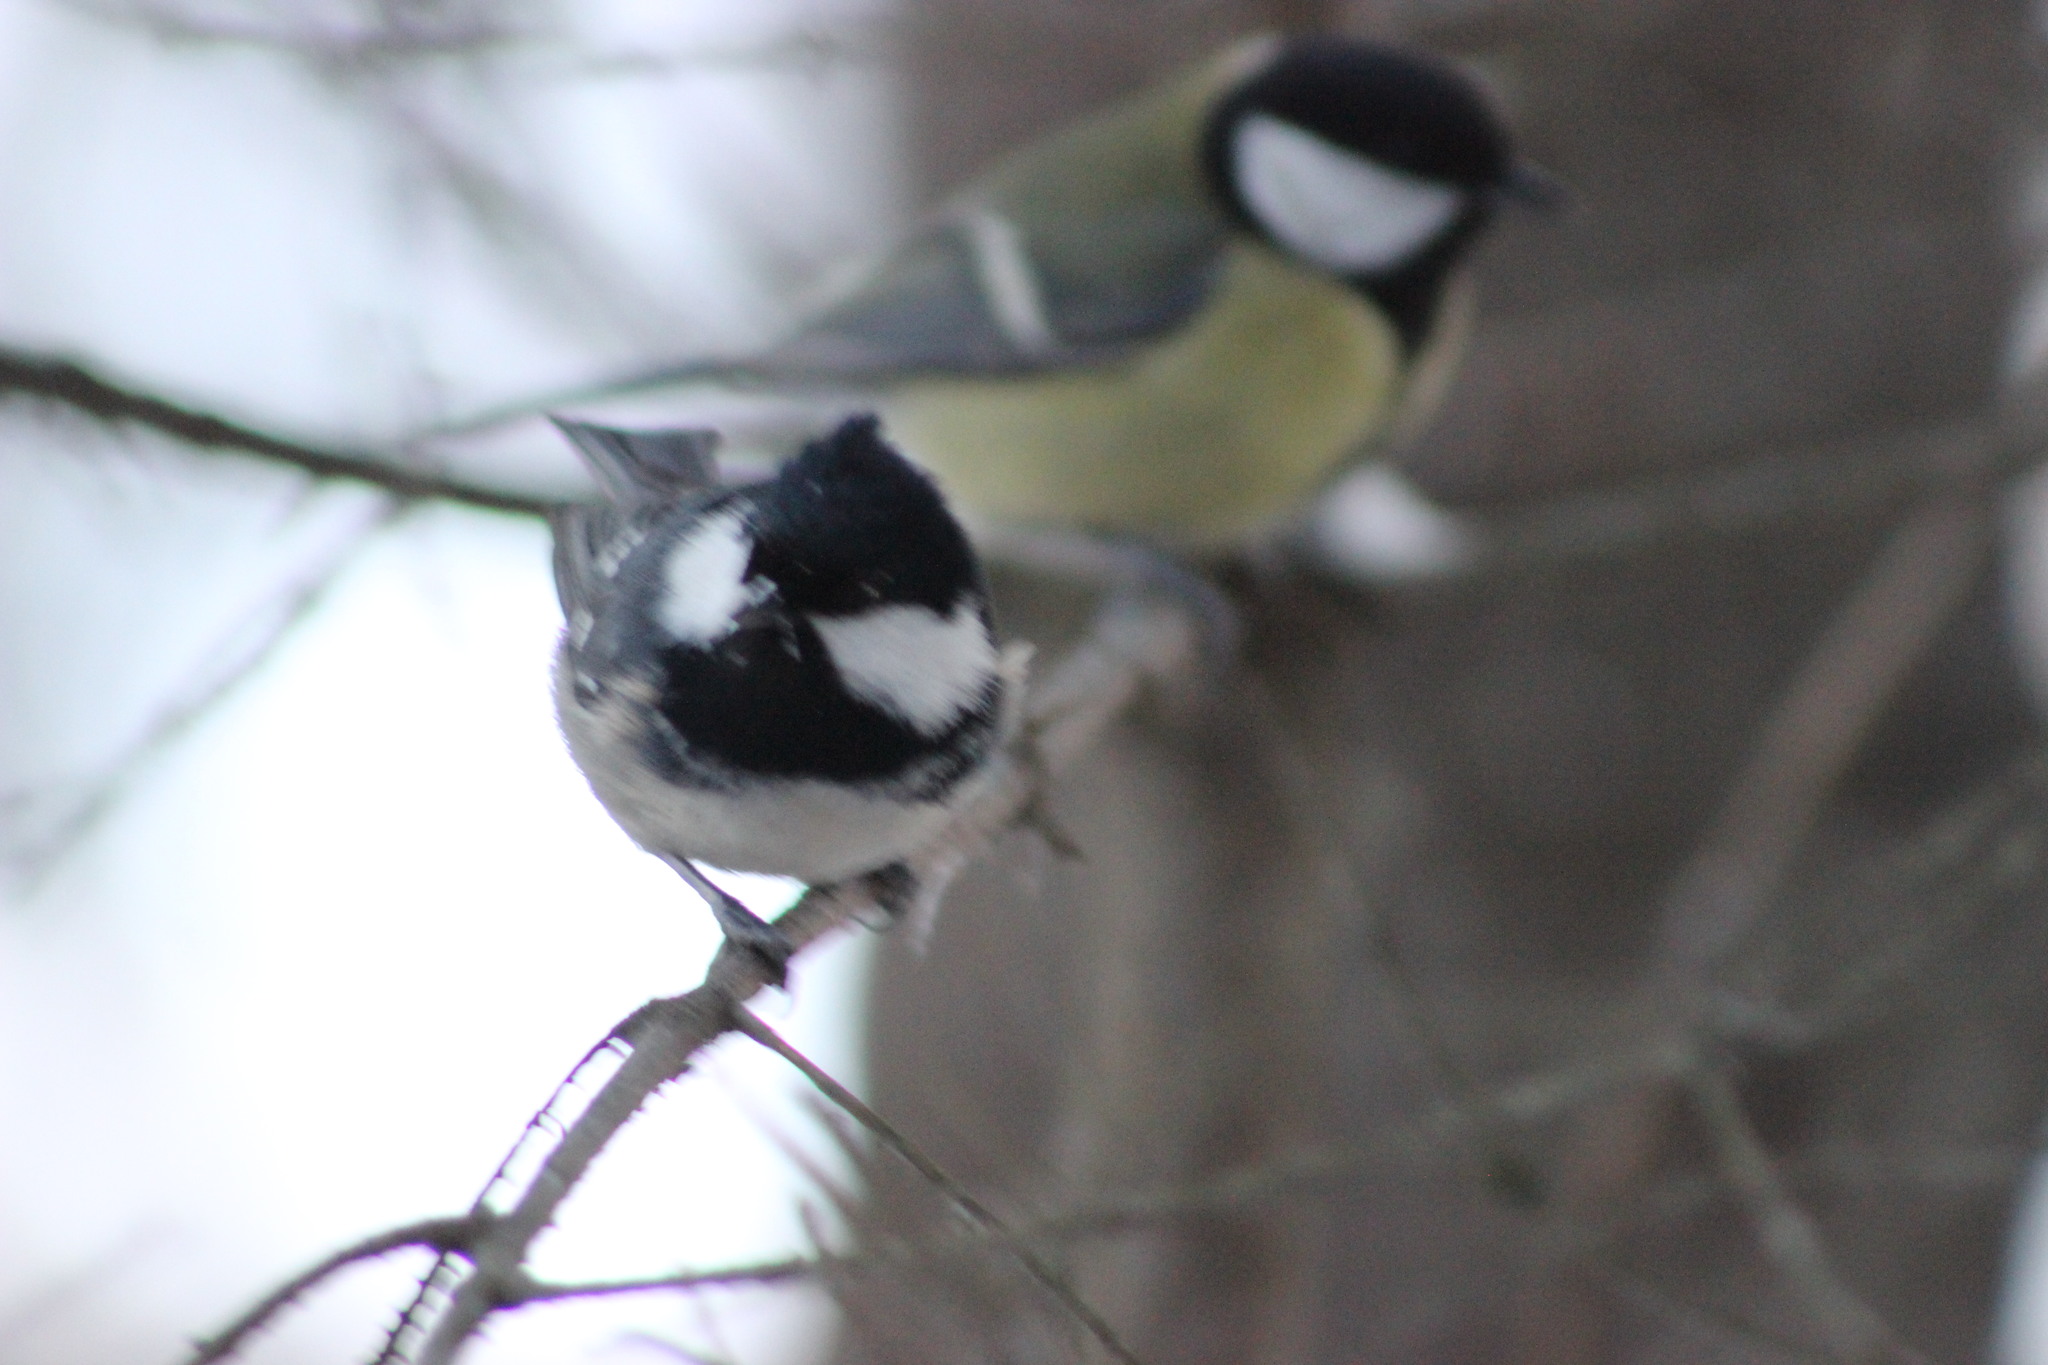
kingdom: Animalia
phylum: Chordata
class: Aves
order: Passeriformes
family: Paridae
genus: Periparus
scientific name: Periparus ater
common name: Coal tit
